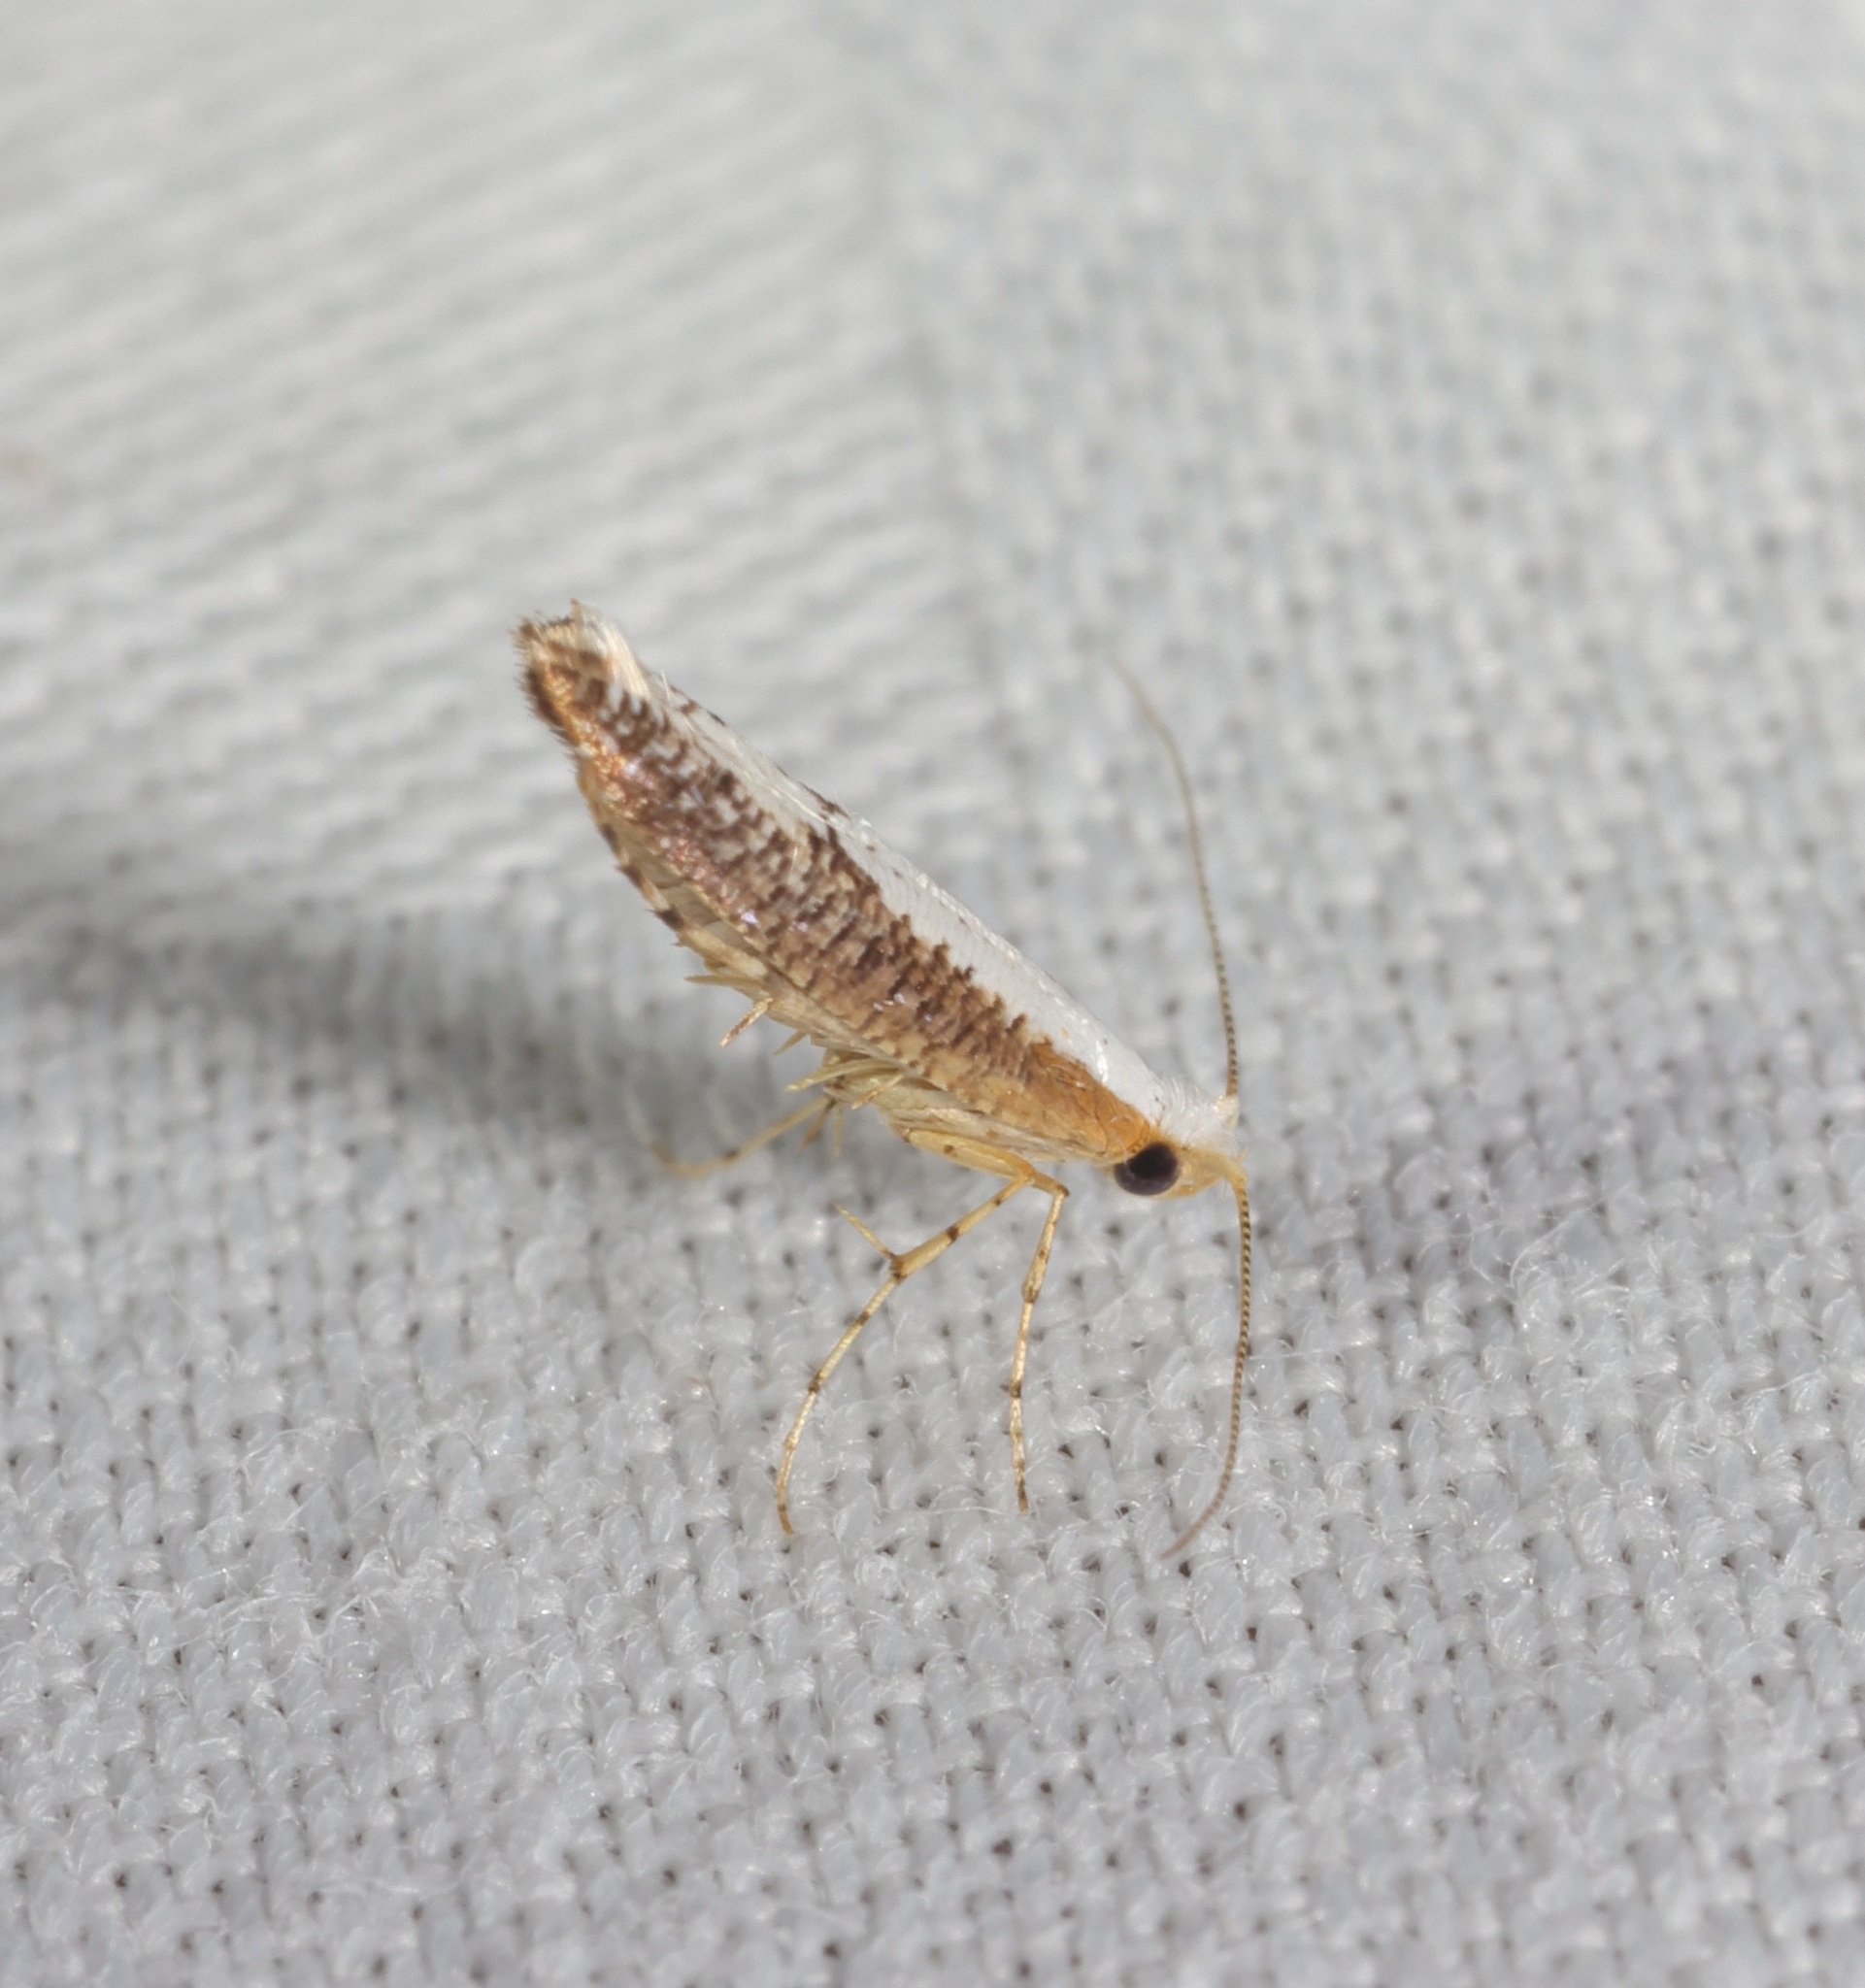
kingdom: Animalia
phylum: Arthropoda
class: Insecta
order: Lepidoptera
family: Yponomeutidae
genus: Zelleria
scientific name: Zelleria chalcoleuca
